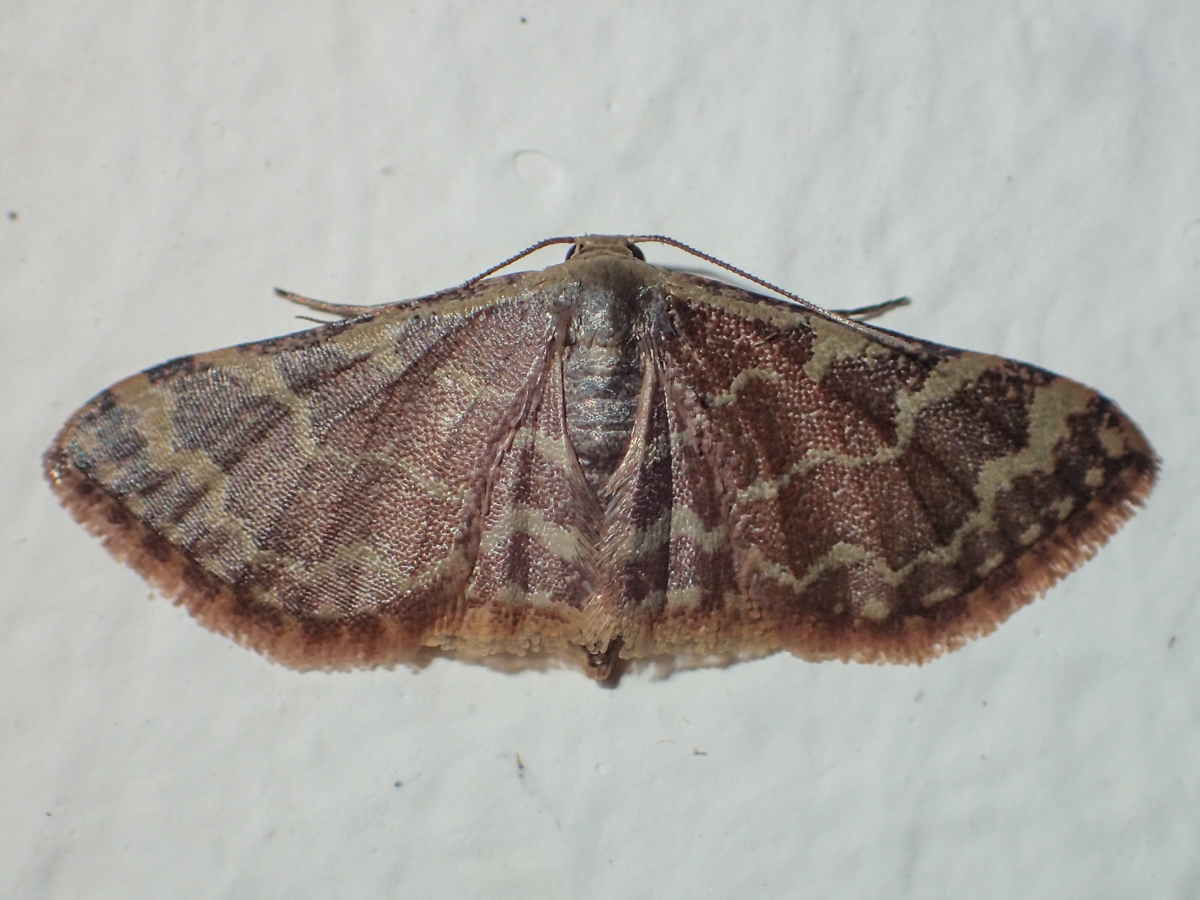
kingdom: Animalia
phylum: Arthropoda
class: Insecta
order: Lepidoptera
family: Geometridae
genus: Lophophleps
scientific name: Lophophleps purpurea
